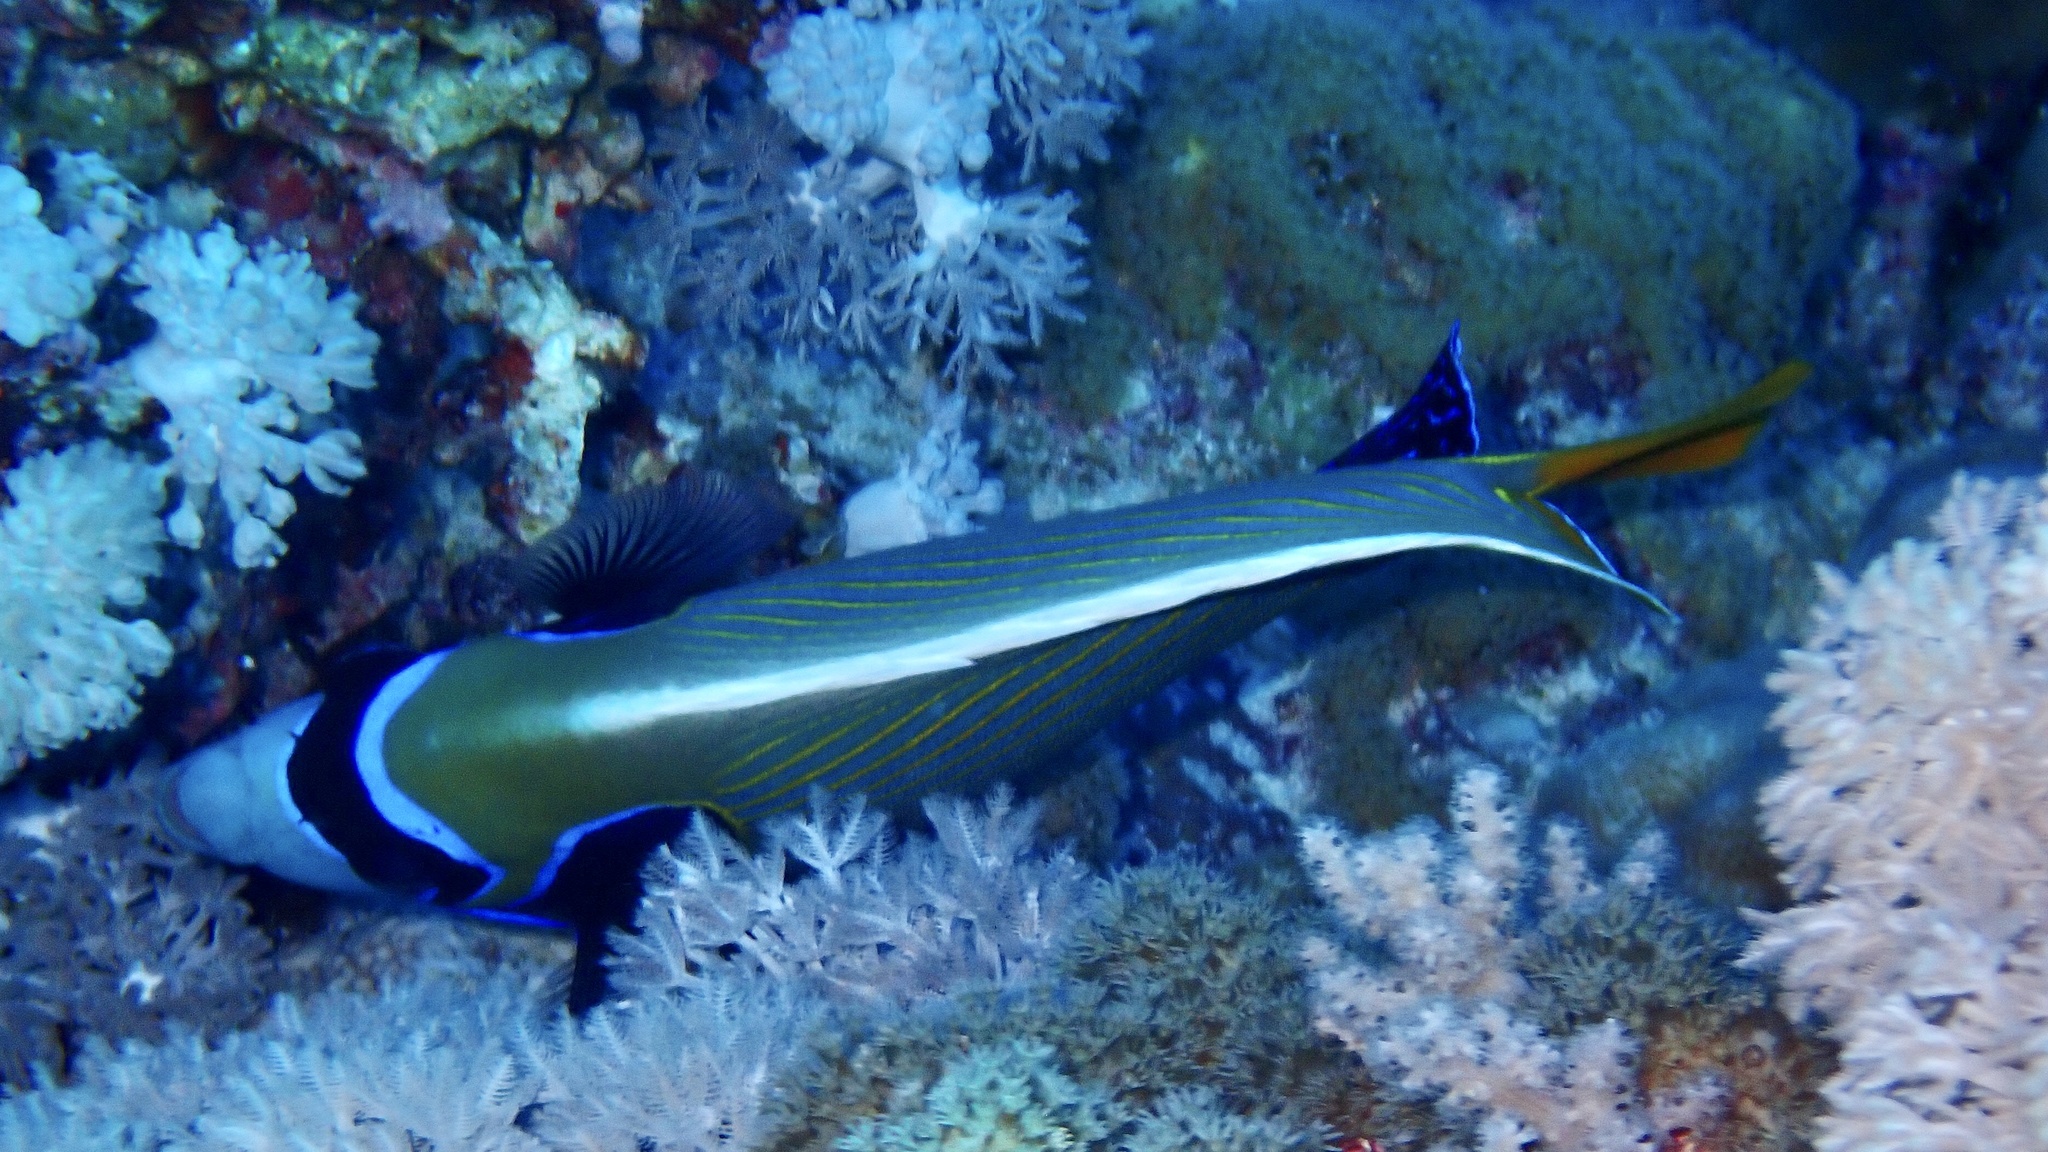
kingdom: Animalia
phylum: Chordata
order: Perciformes
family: Pomacanthidae
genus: Pomacanthus
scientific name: Pomacanthus imperator
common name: Emperor angelfish
